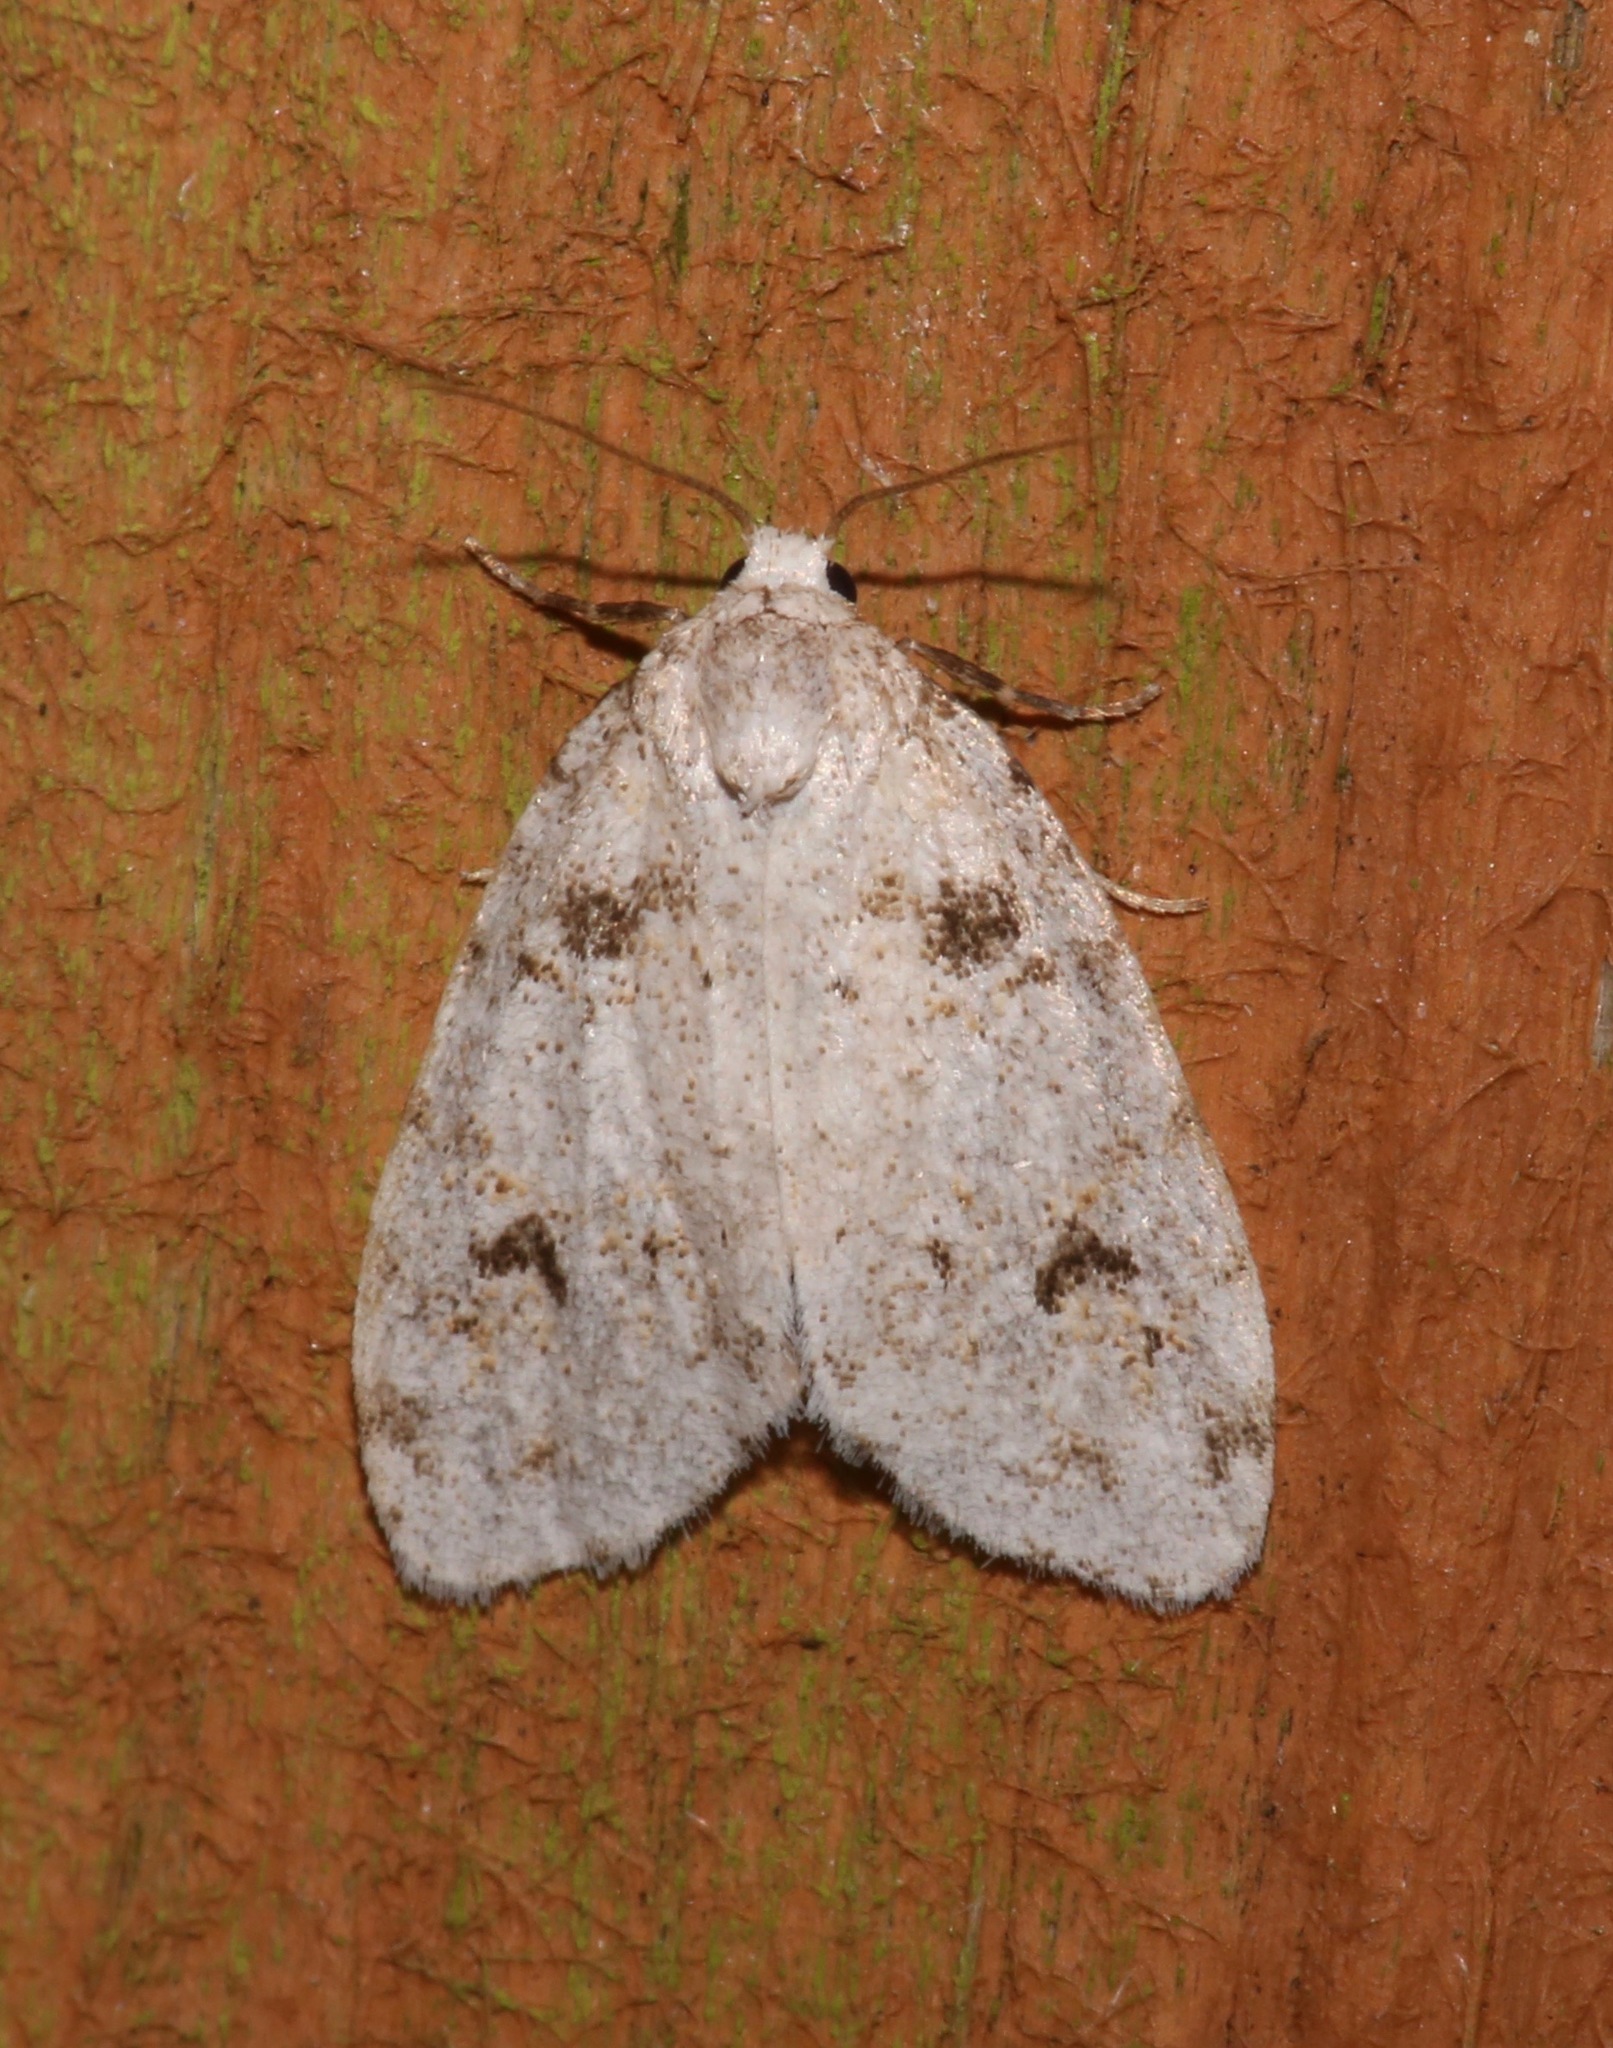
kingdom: Animalia
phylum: Arthropoda
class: Insecta
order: Lepidoptera
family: Erebidae
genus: Clemensia
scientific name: Clemensia ochreata
